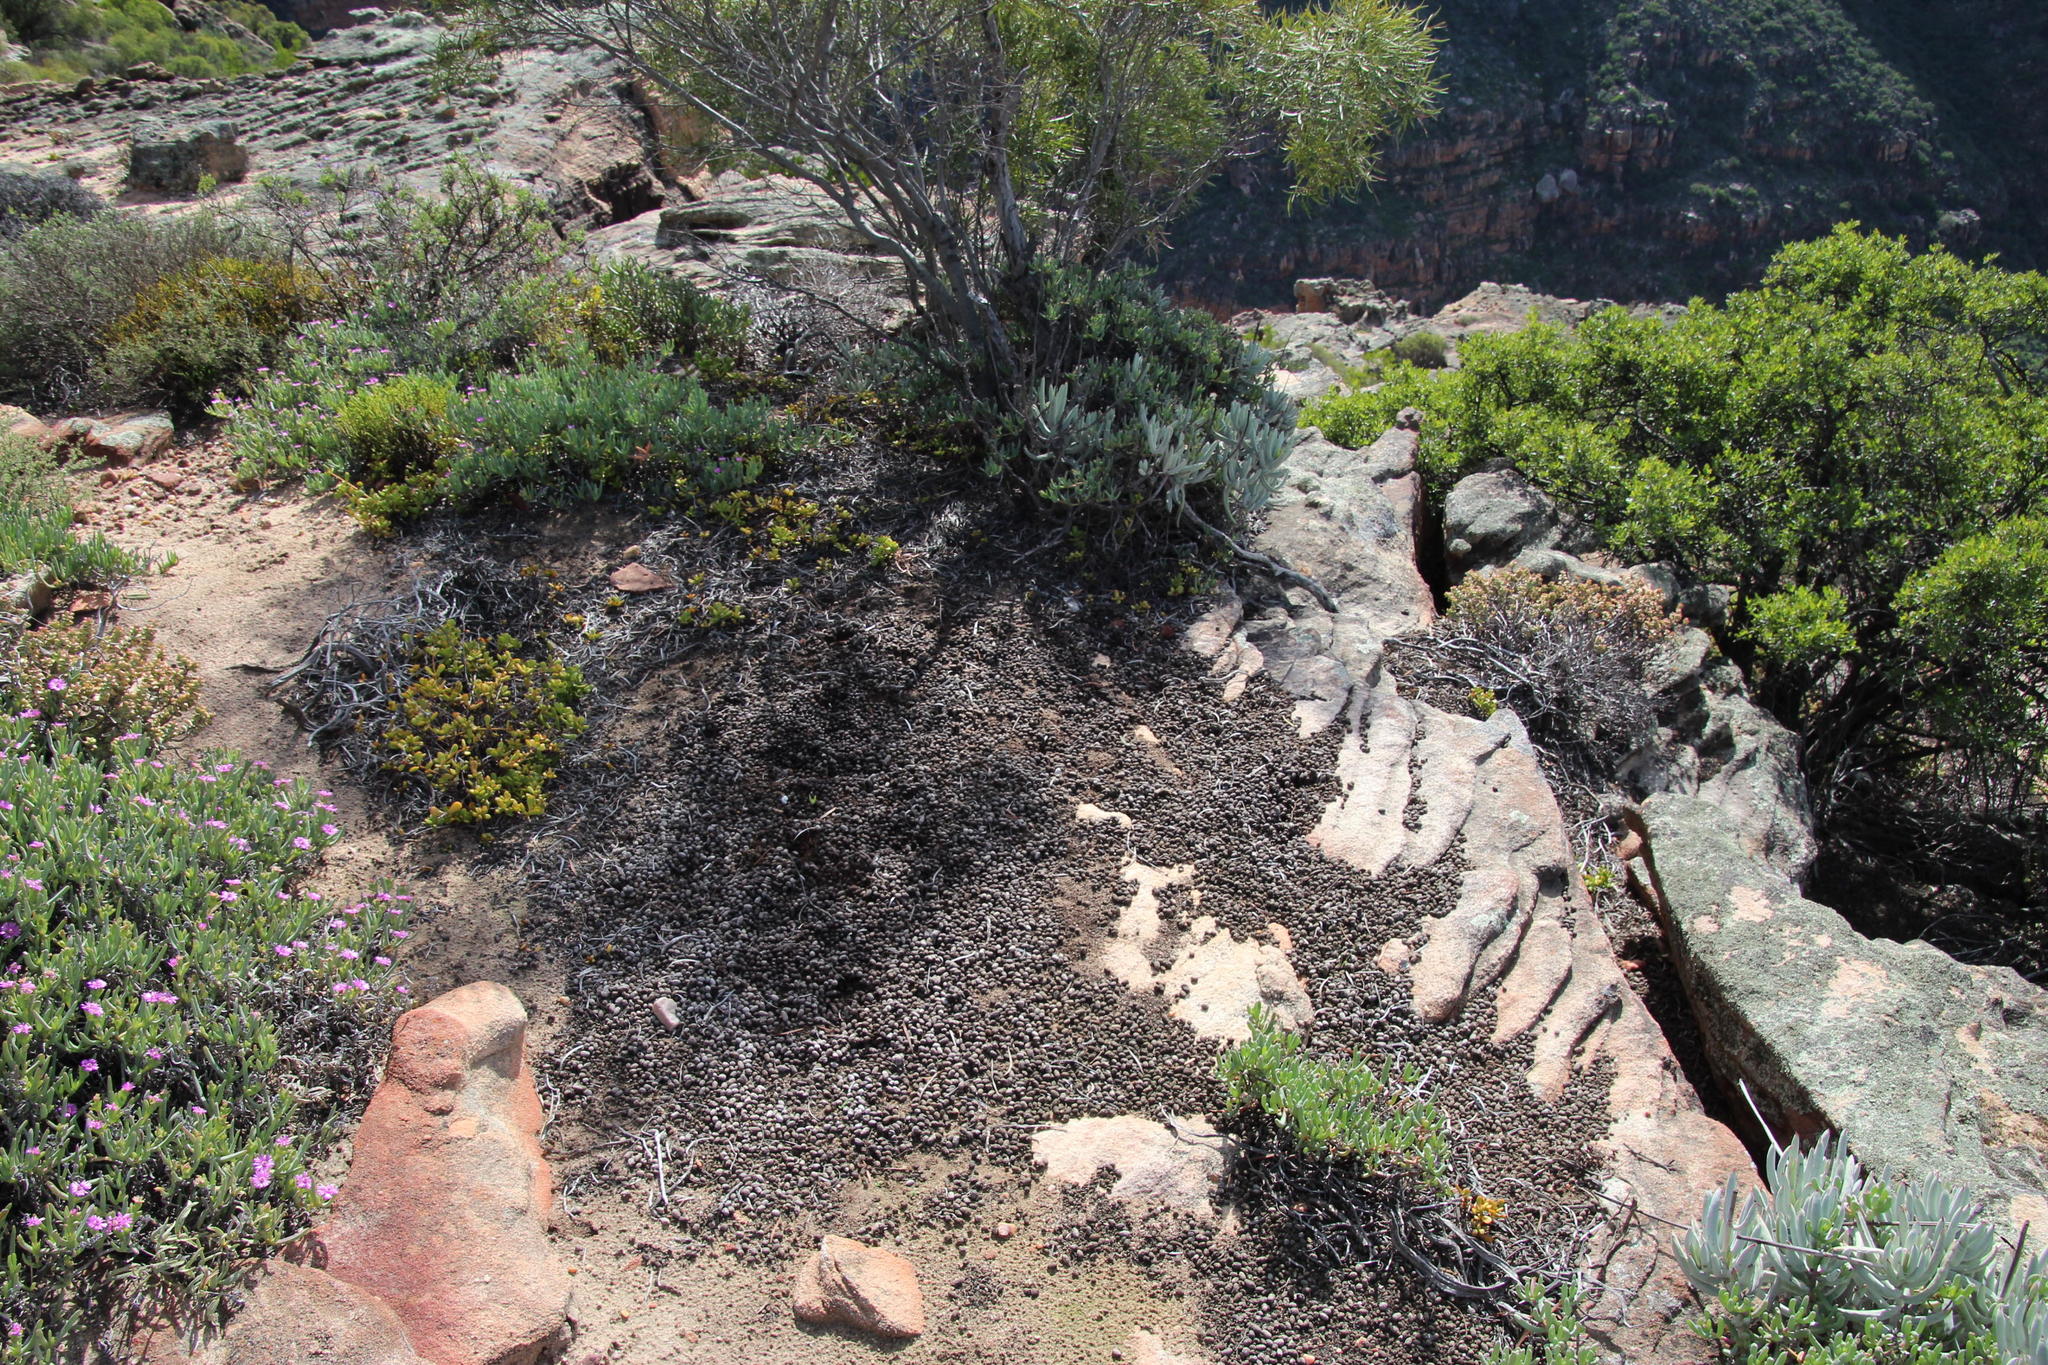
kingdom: Animalia
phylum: Chordata
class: Mammalia
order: Artiodactyla
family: Bovidae
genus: Oreotragus
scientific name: Oreotragus oreotragus
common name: Klipspringer
